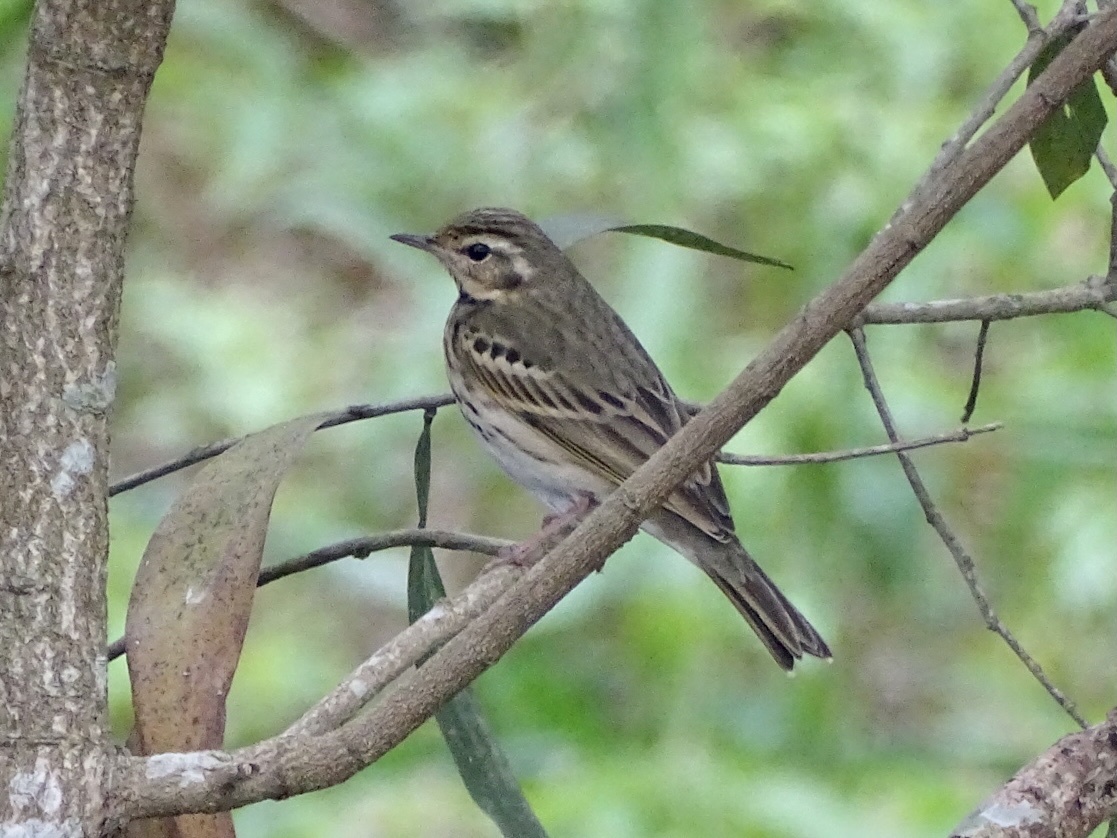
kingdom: Animalia
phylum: Chordata
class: Aves
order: Passeriformes
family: Motacillidae
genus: Anthus
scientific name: Anthus hodgsoni
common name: Olive-backed pipit
